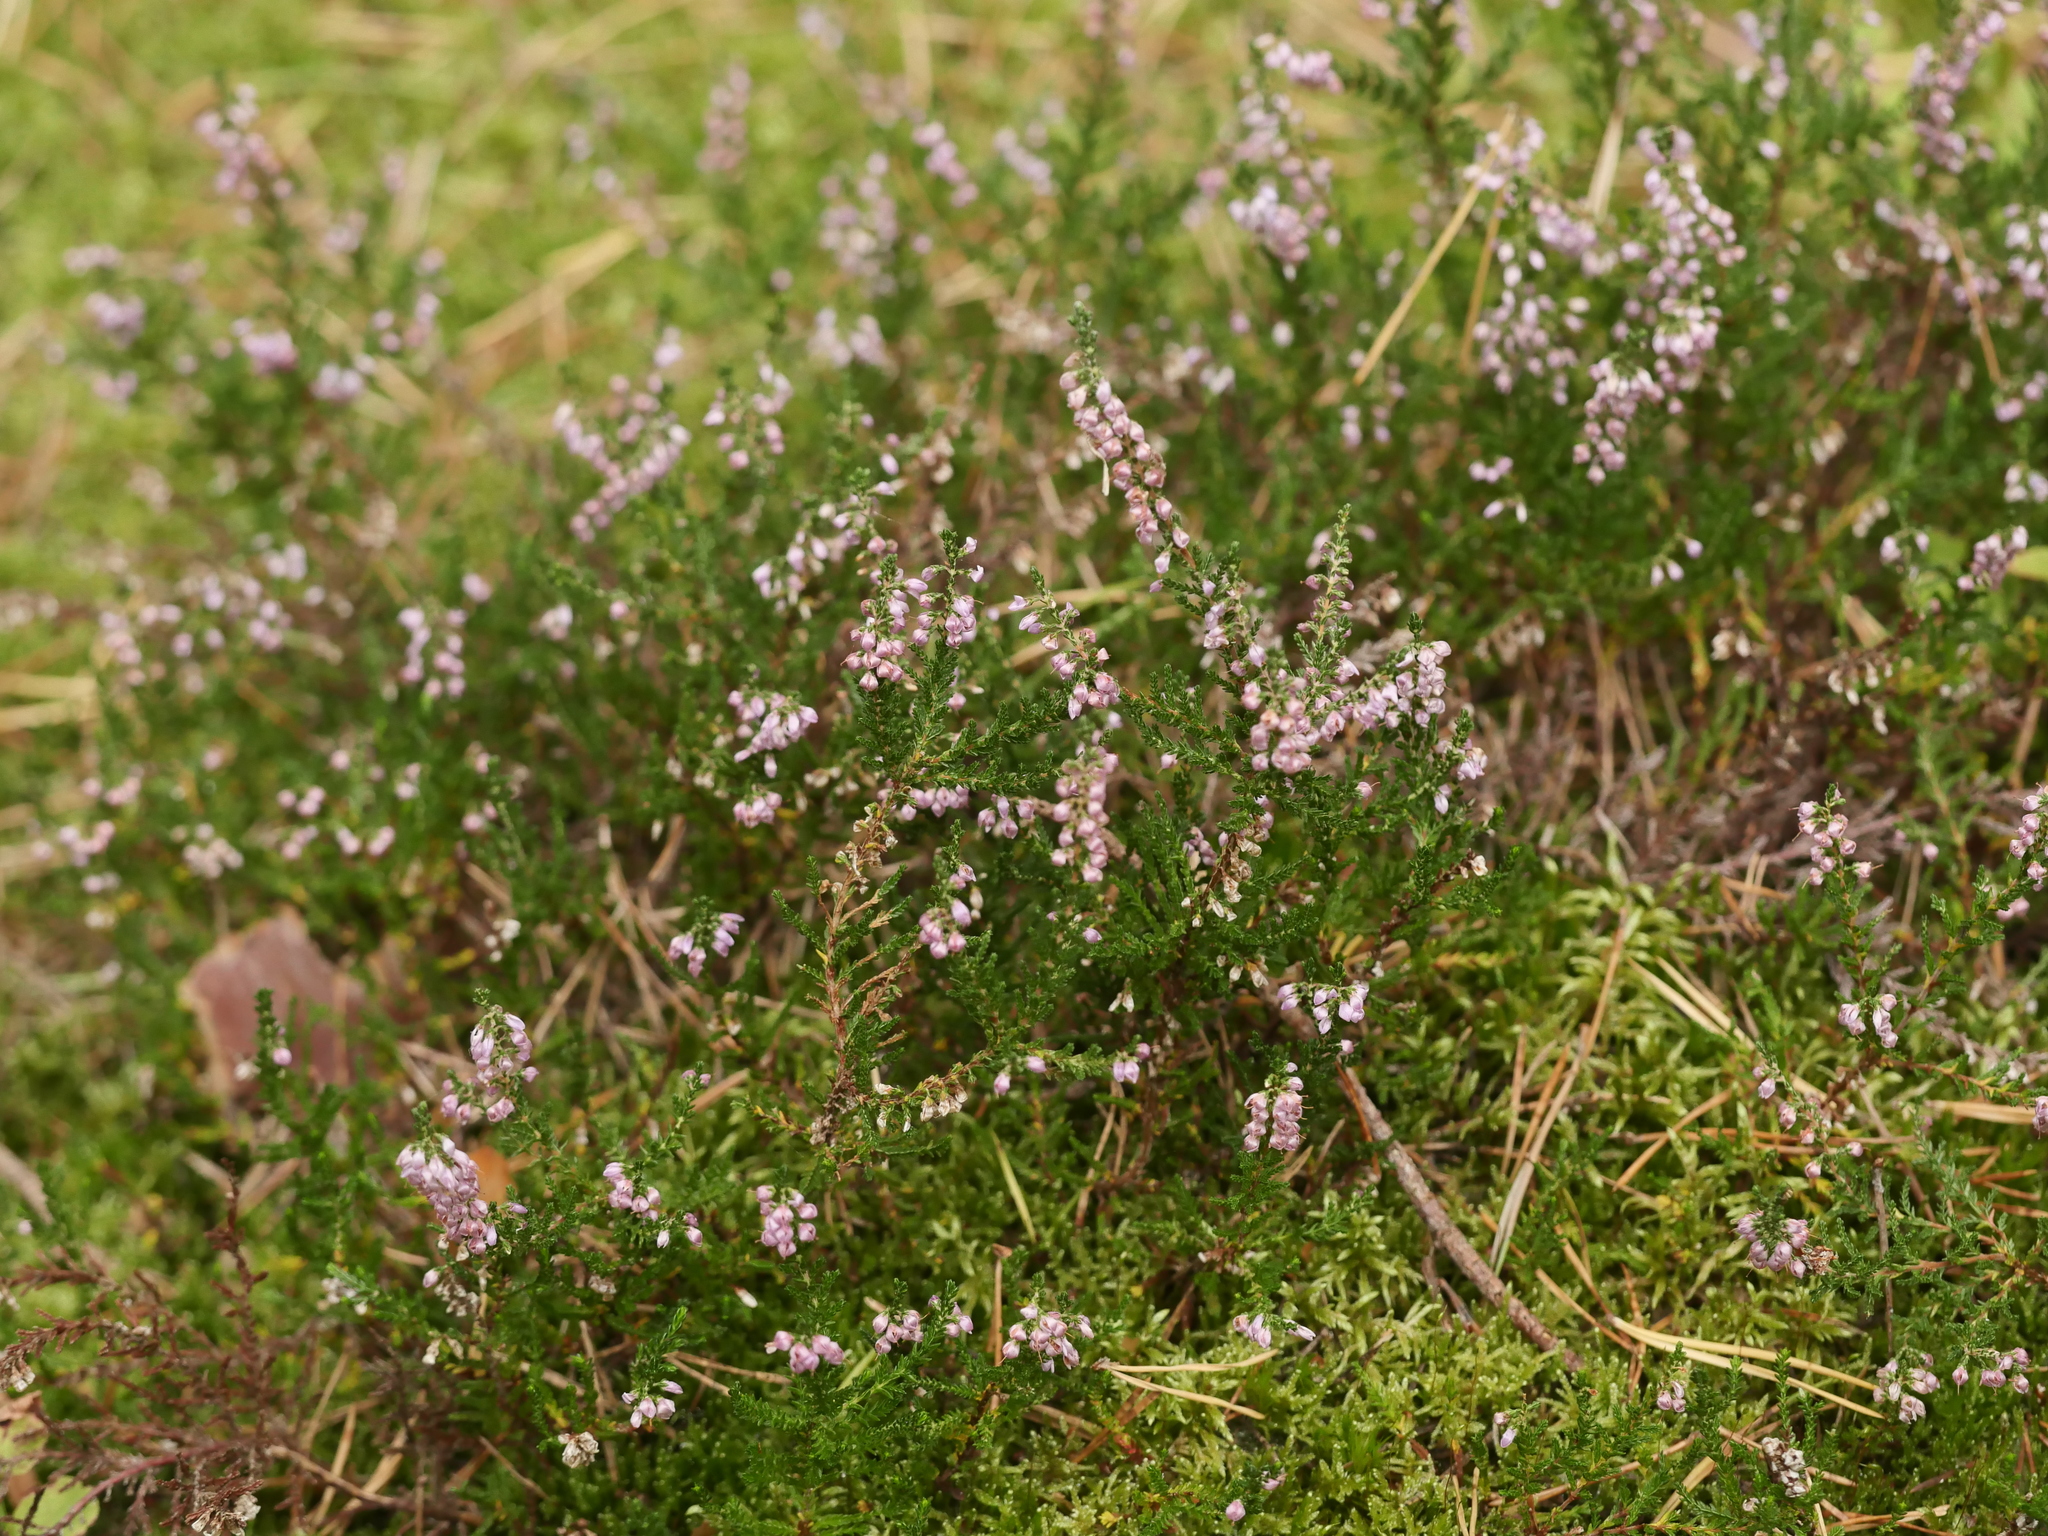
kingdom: Plantae
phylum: Tracheophyta
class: Magnoliopsida
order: Ericales
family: Ericaceae
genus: Calluna
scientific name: Calluna vulgaris
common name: Heather
